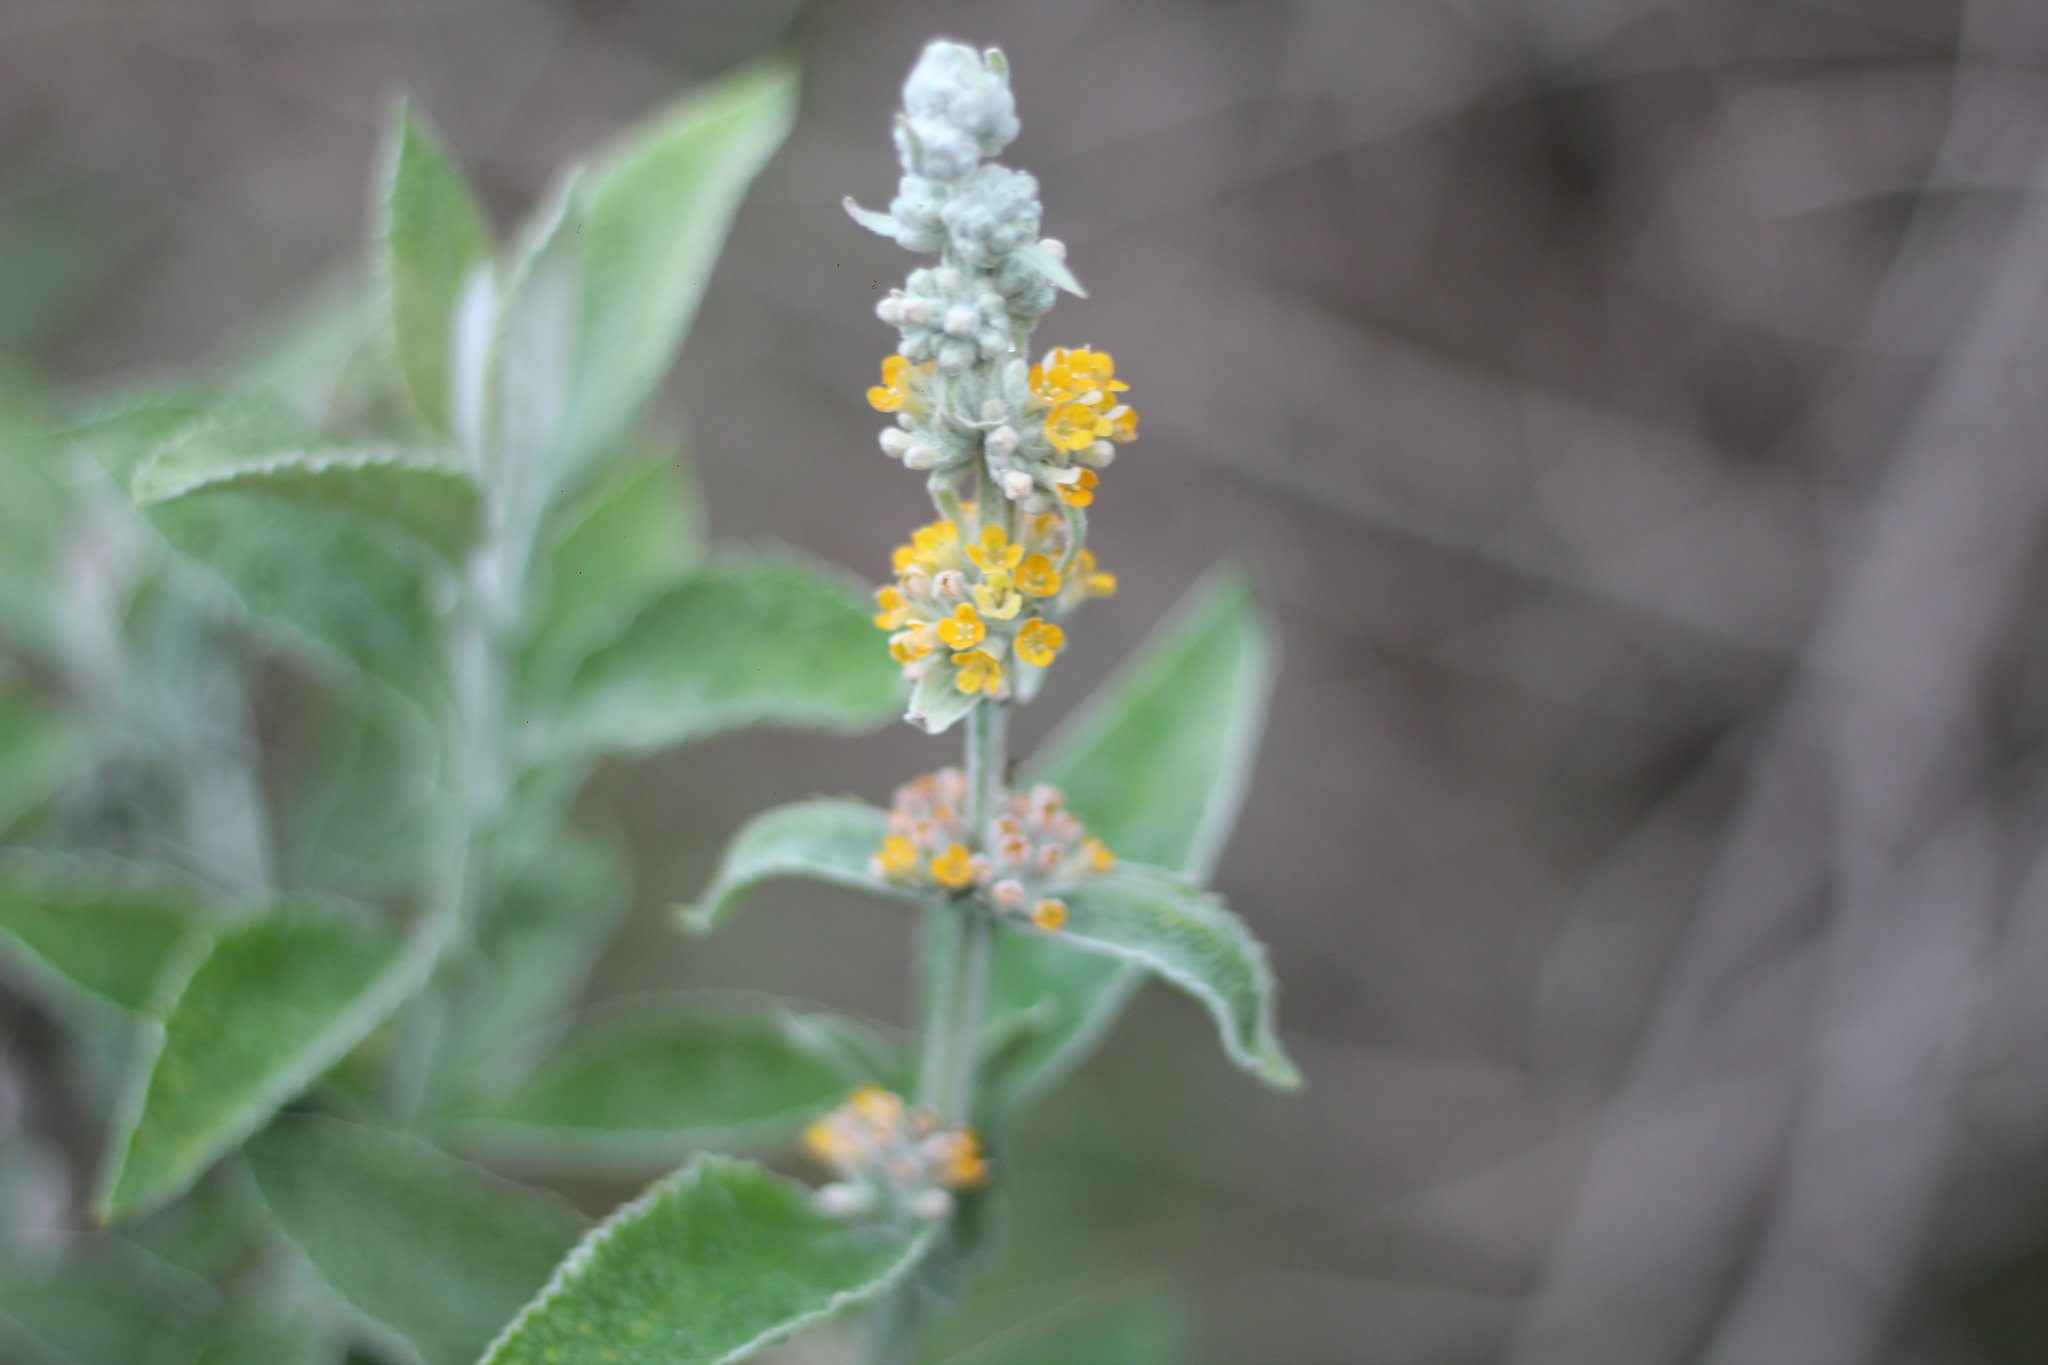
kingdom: Plantae
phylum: Tracheophyta
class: Magnoliopsida
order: Lamiales
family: Scrophulariaceae
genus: Buddleja
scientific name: Buddleja stachyoides
